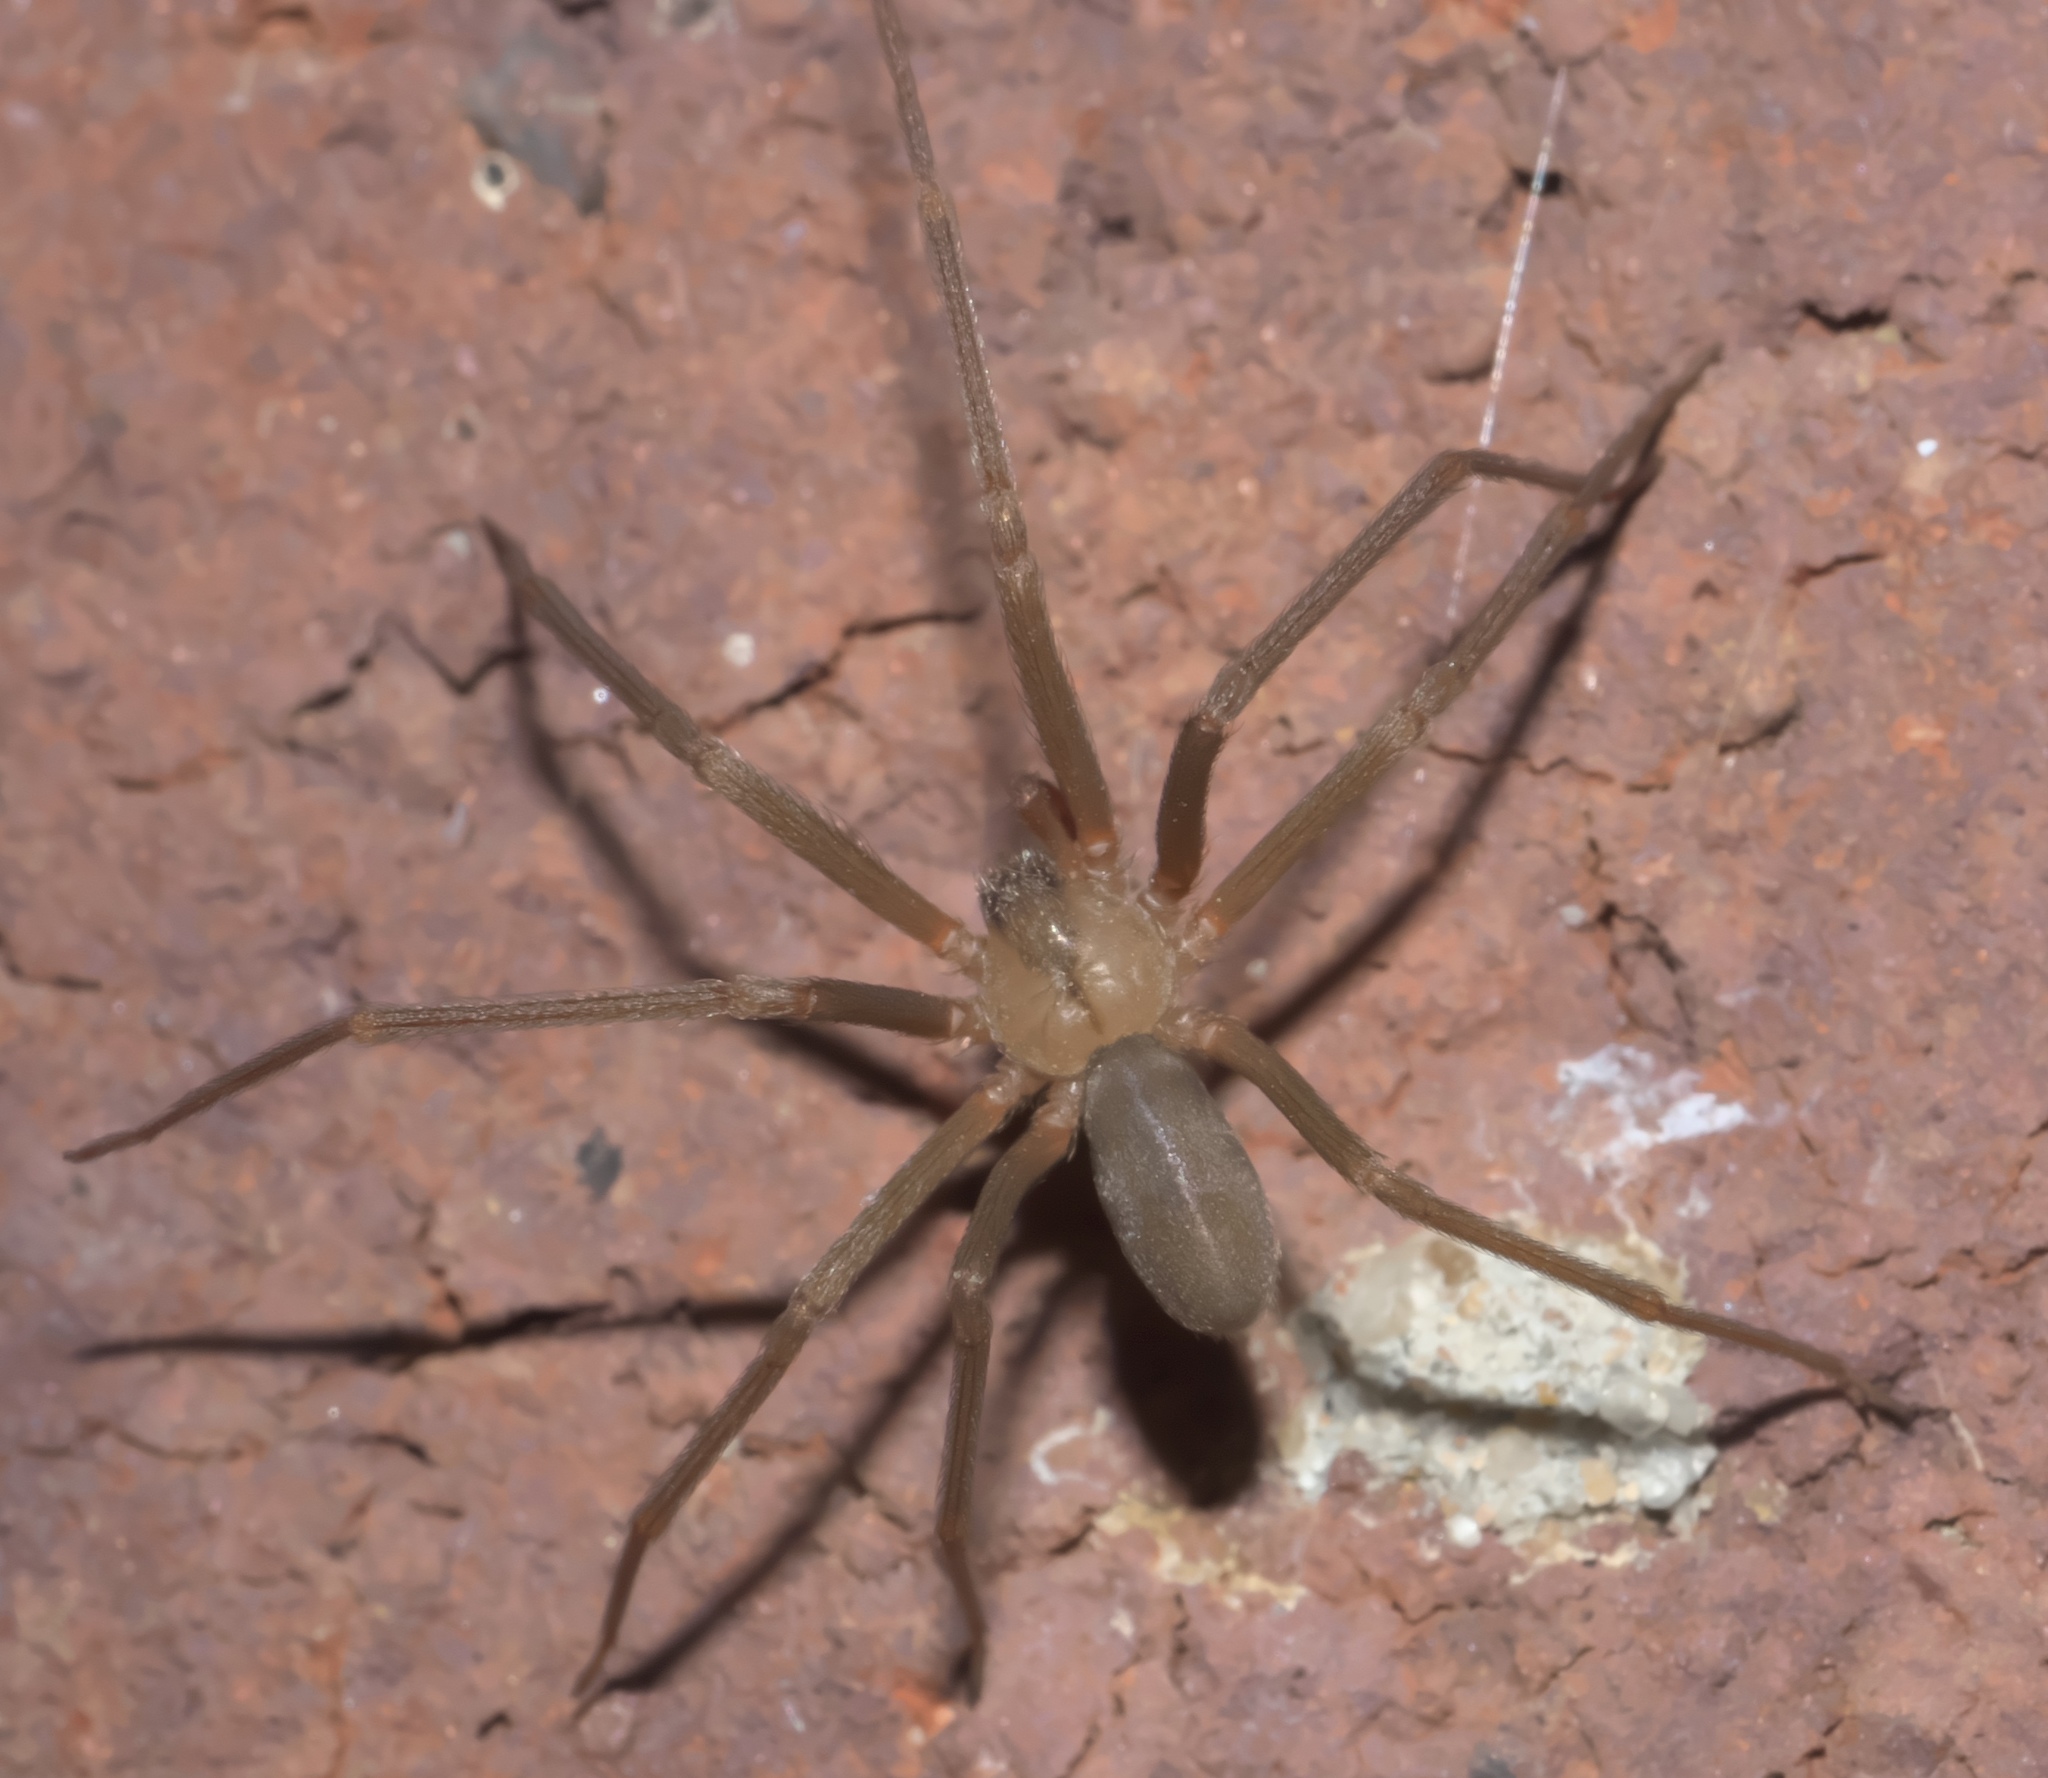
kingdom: Animalia
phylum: Arthropoda
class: Arachnida
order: Araneae
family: Sicariidae
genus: Loxosceles
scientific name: Loxosceles reclusa
